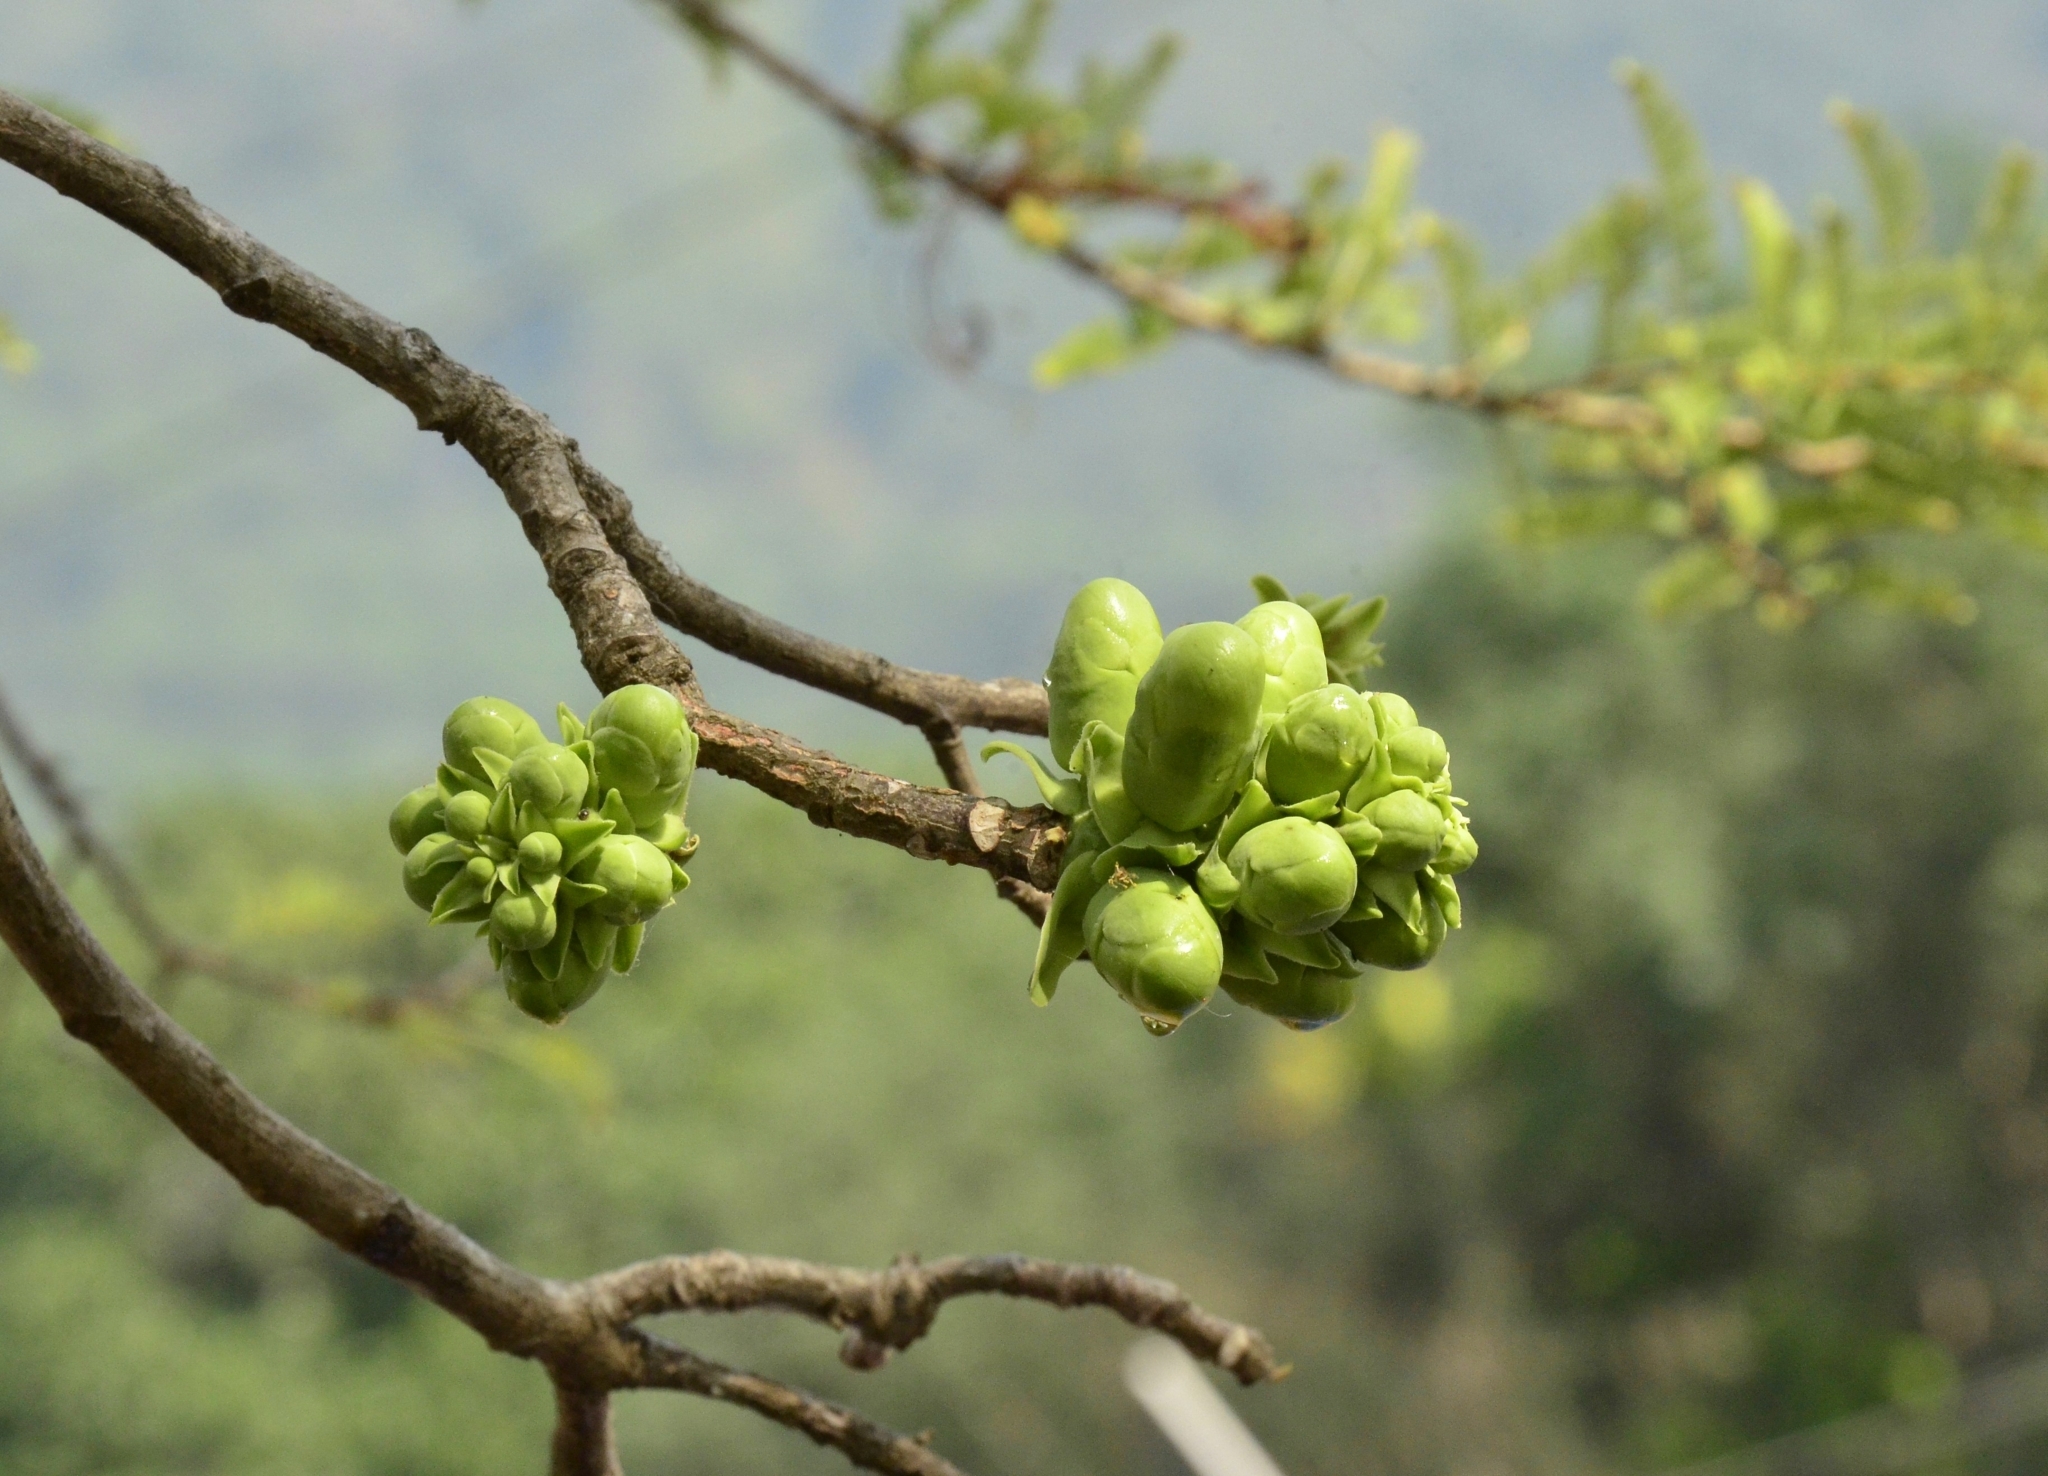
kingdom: Plantae
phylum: Tracheophyta
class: Magnoliopsida
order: Ericales
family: Lecythidaceae
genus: Careya
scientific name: Careya arborea
